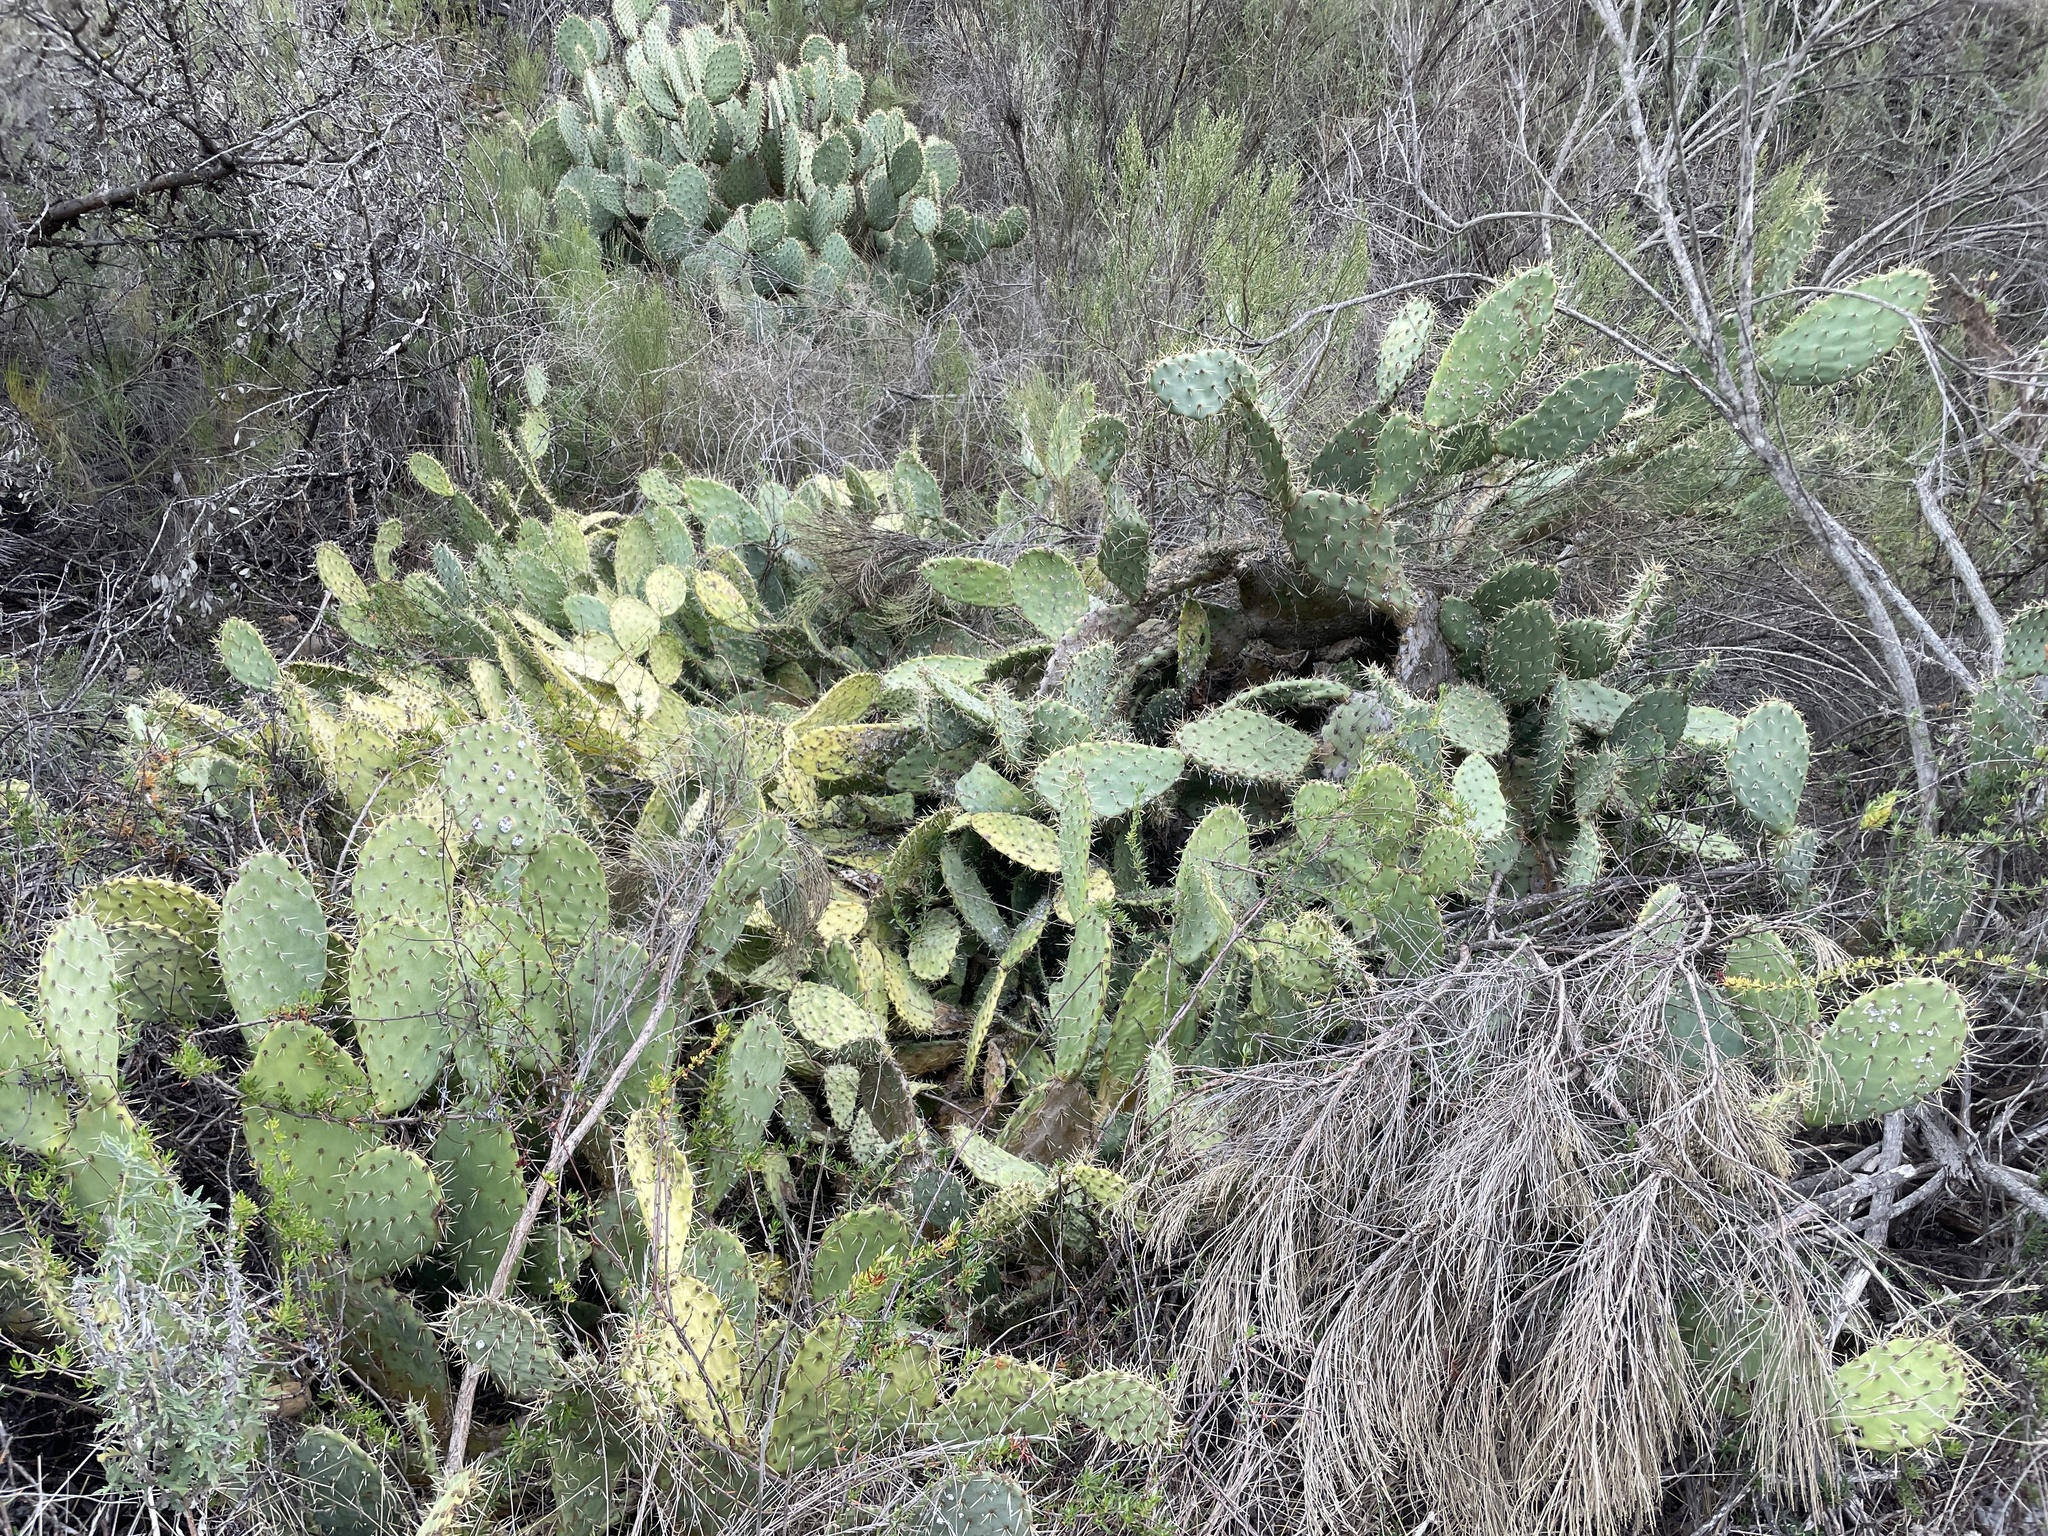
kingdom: Plantae
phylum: Tracheophyta
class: Magnoliopsida
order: Caryophyllales
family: Cactaceae
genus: Opuntia
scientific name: Opuntia littoralis
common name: Coastal prickly-pear
